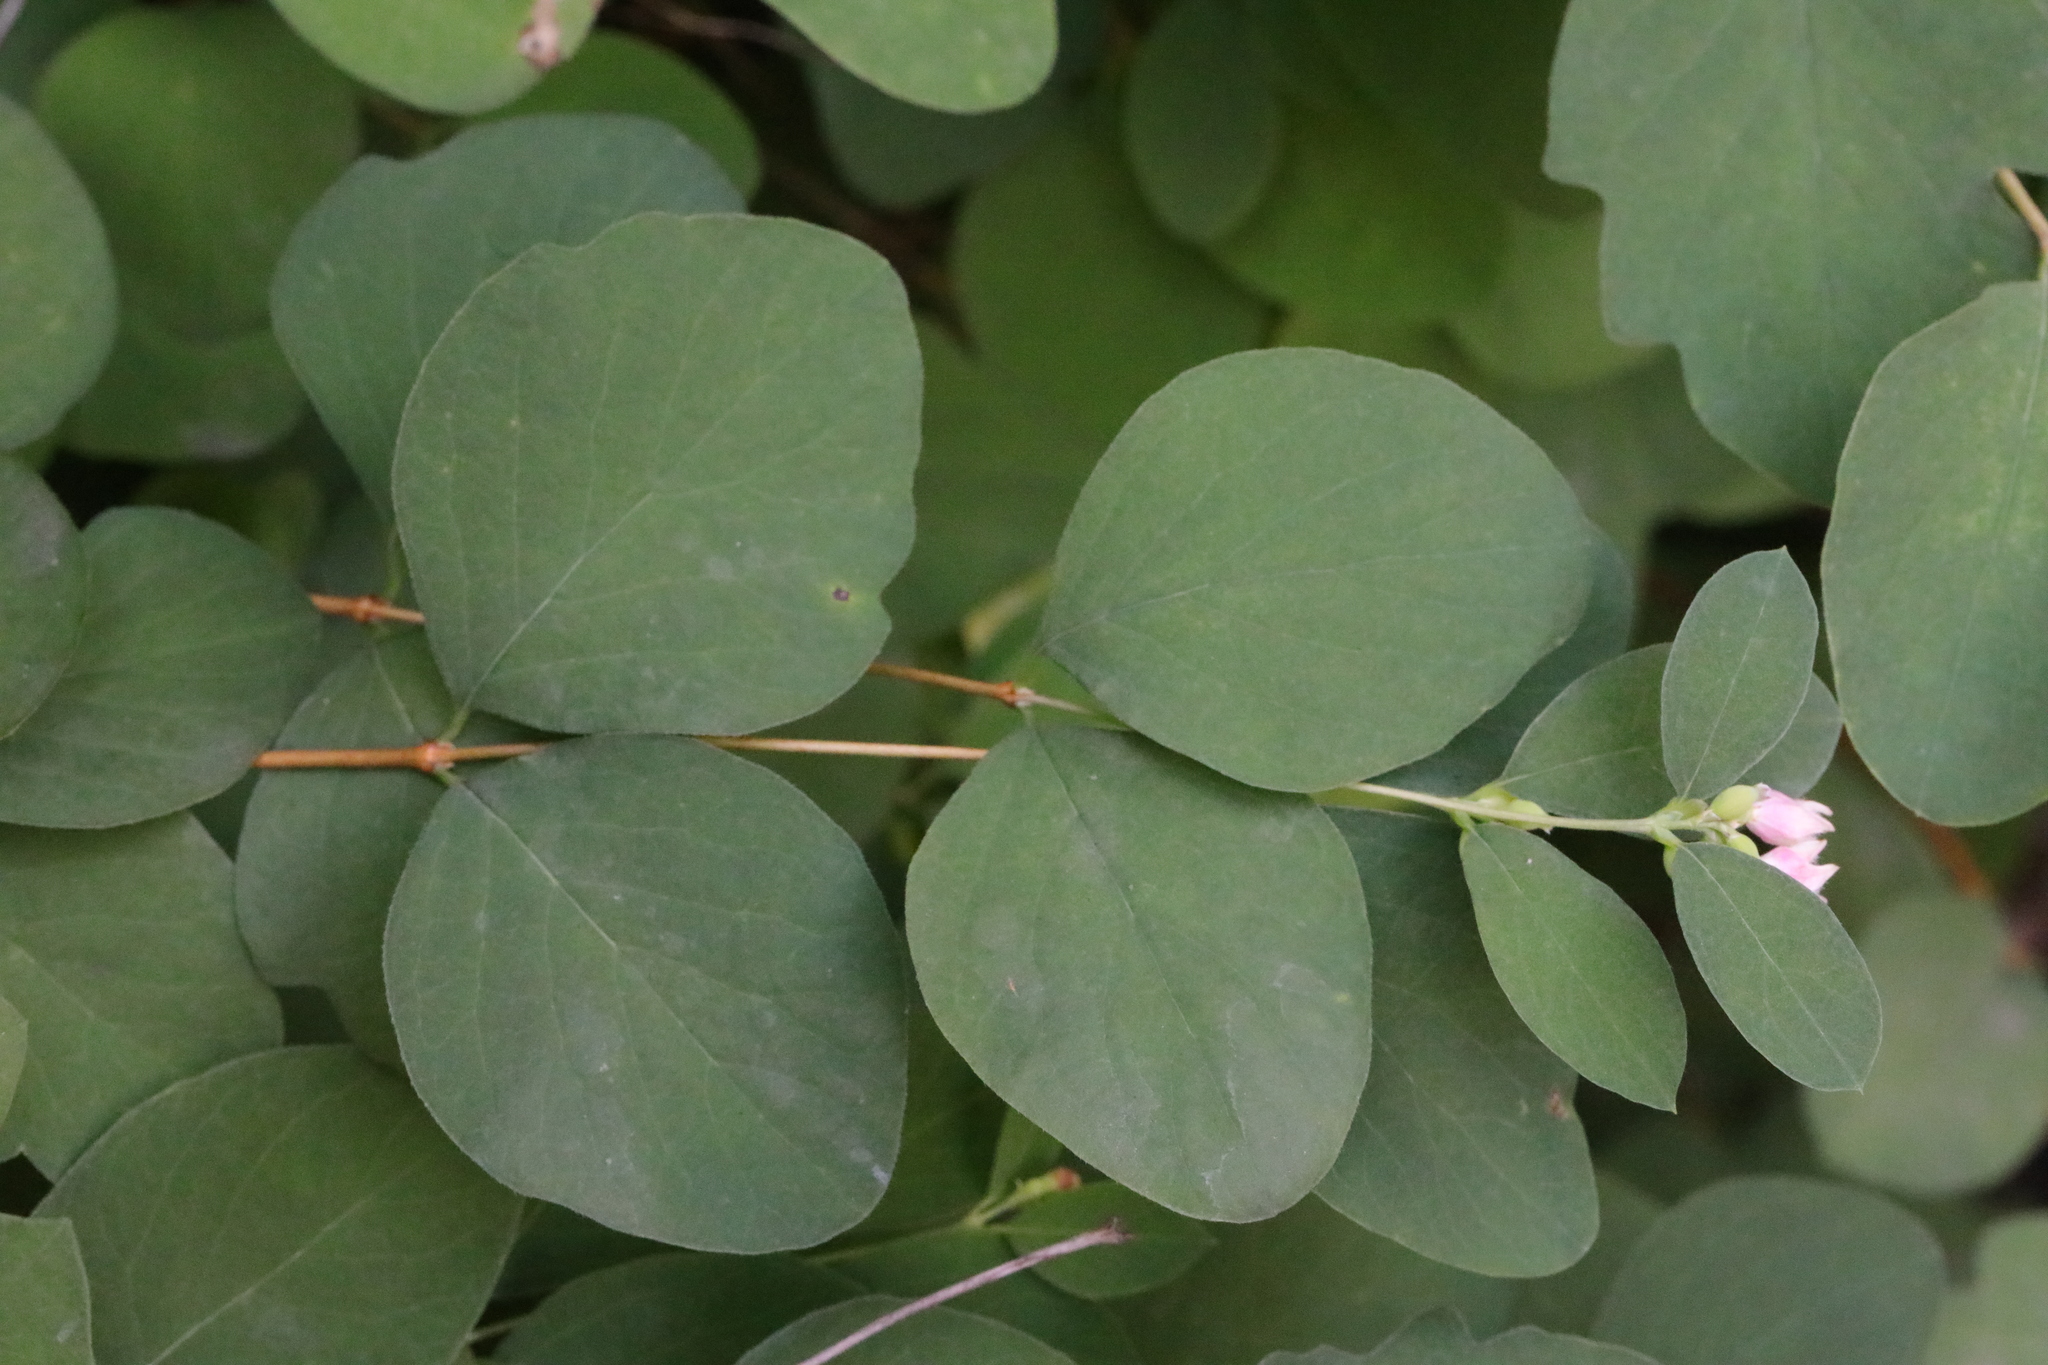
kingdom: Plantae
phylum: Tracheophyta
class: Magnoliopsida
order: Dipsacales
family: Caprifoliaceae
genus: Symphoricarpos
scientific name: Symphoricarpos albus
